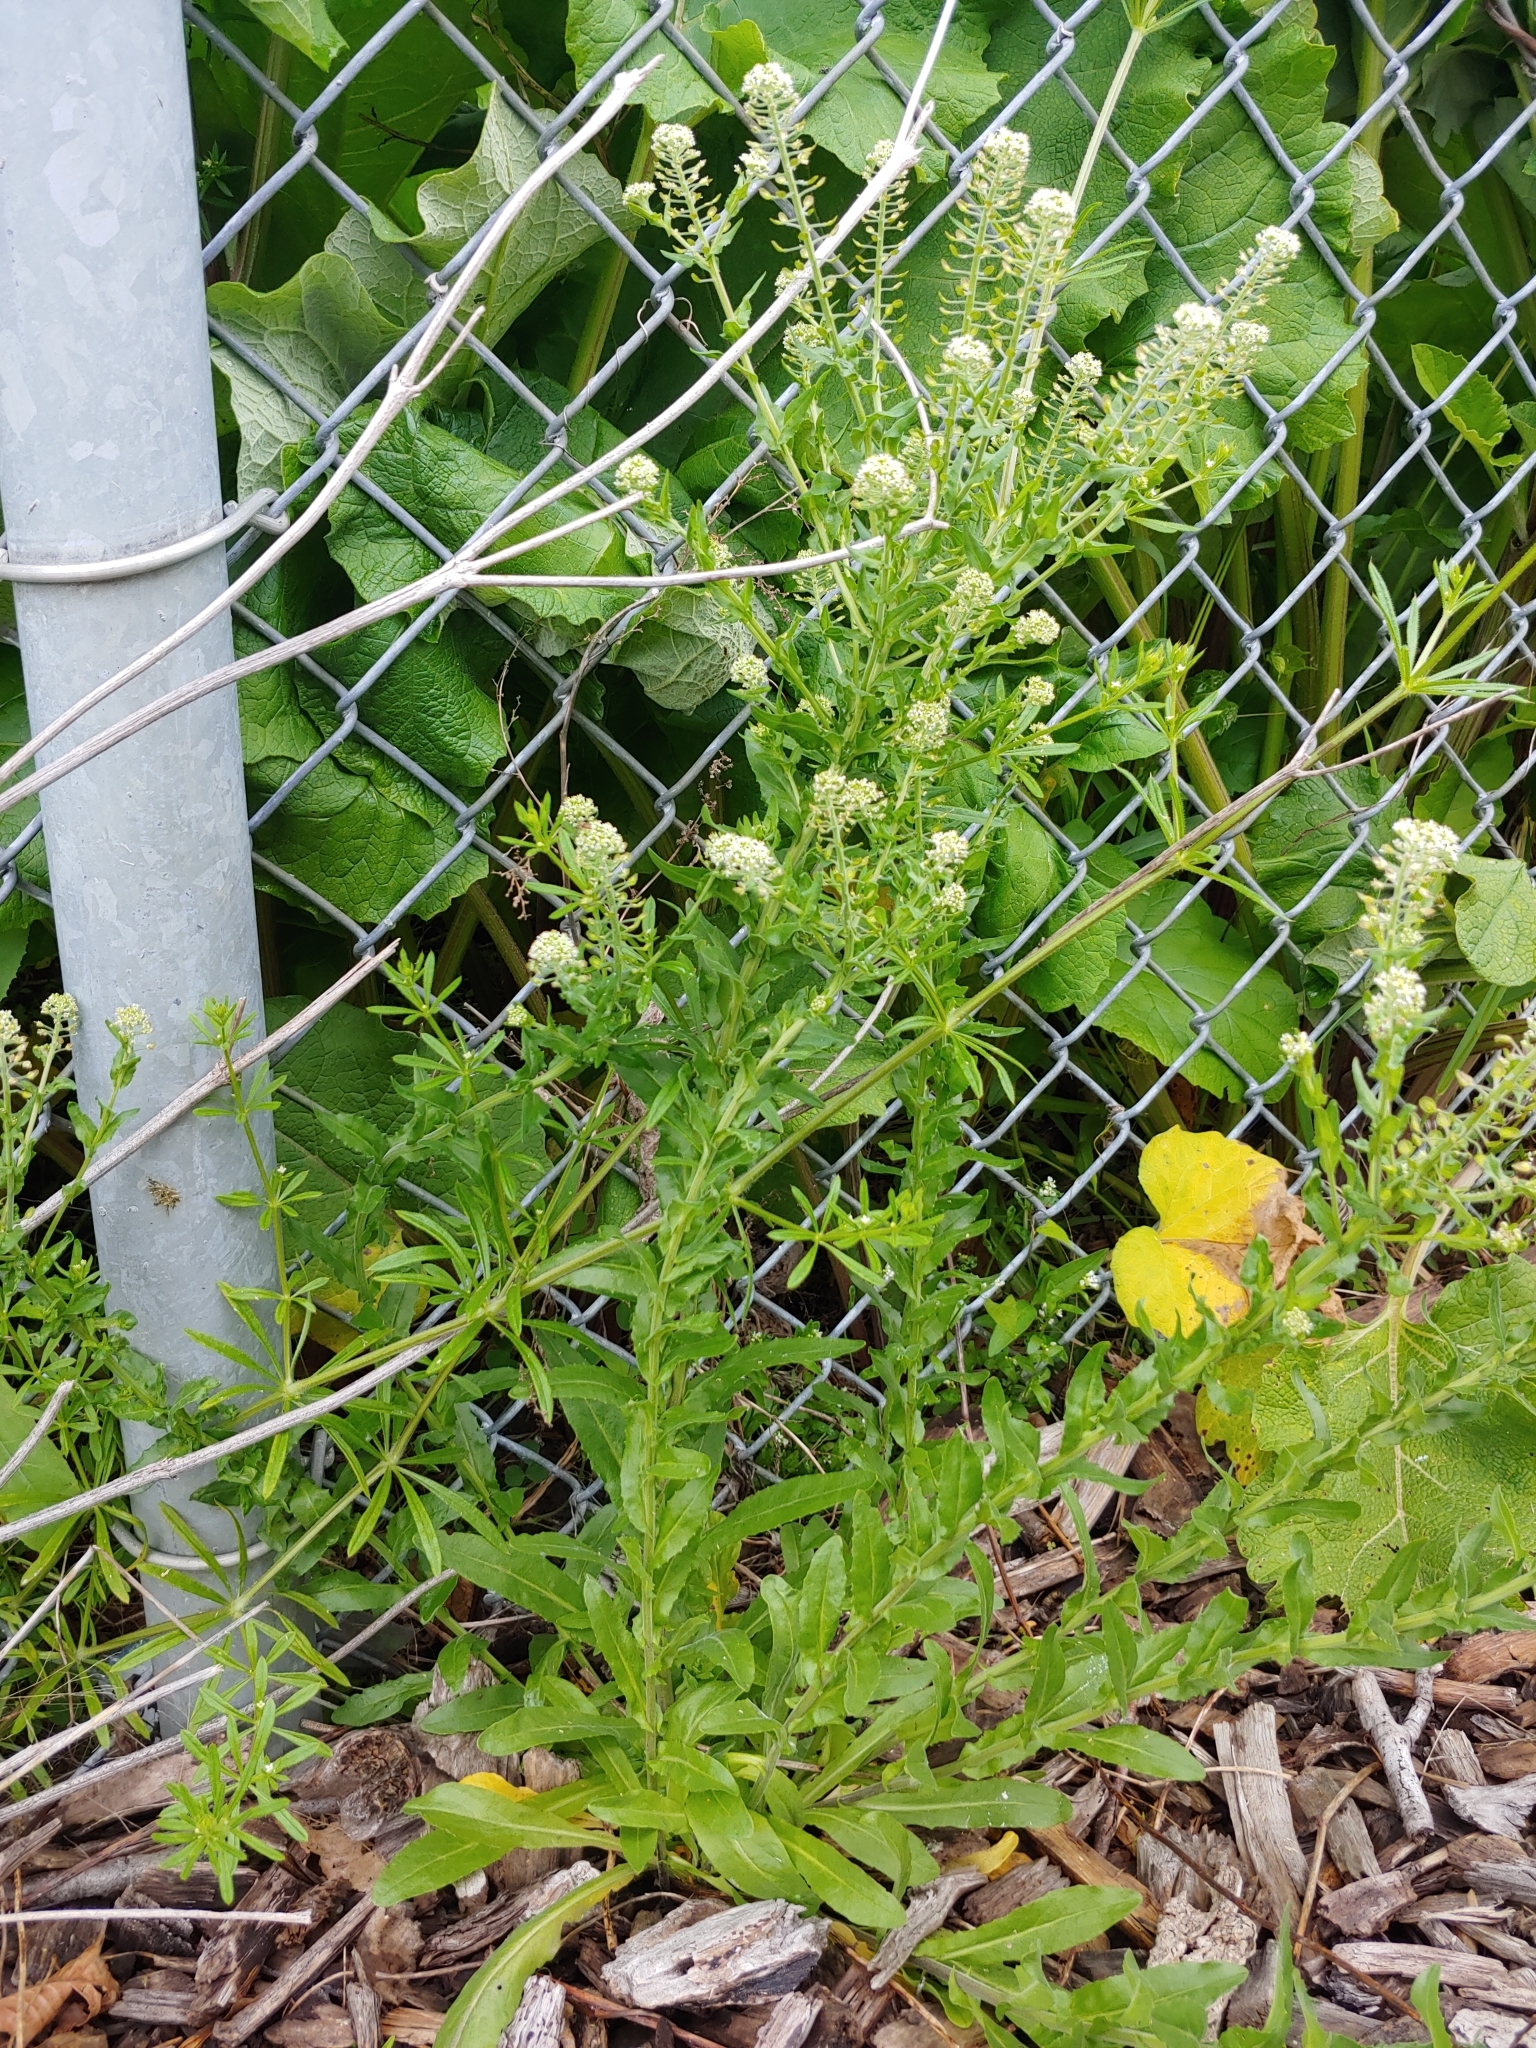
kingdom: Plantae
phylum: Tracheophyta
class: Magnoliopsida
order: Brassicales
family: Brassicaceae
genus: Lepidium
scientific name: Lepidium campestre
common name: Field pepperwort
